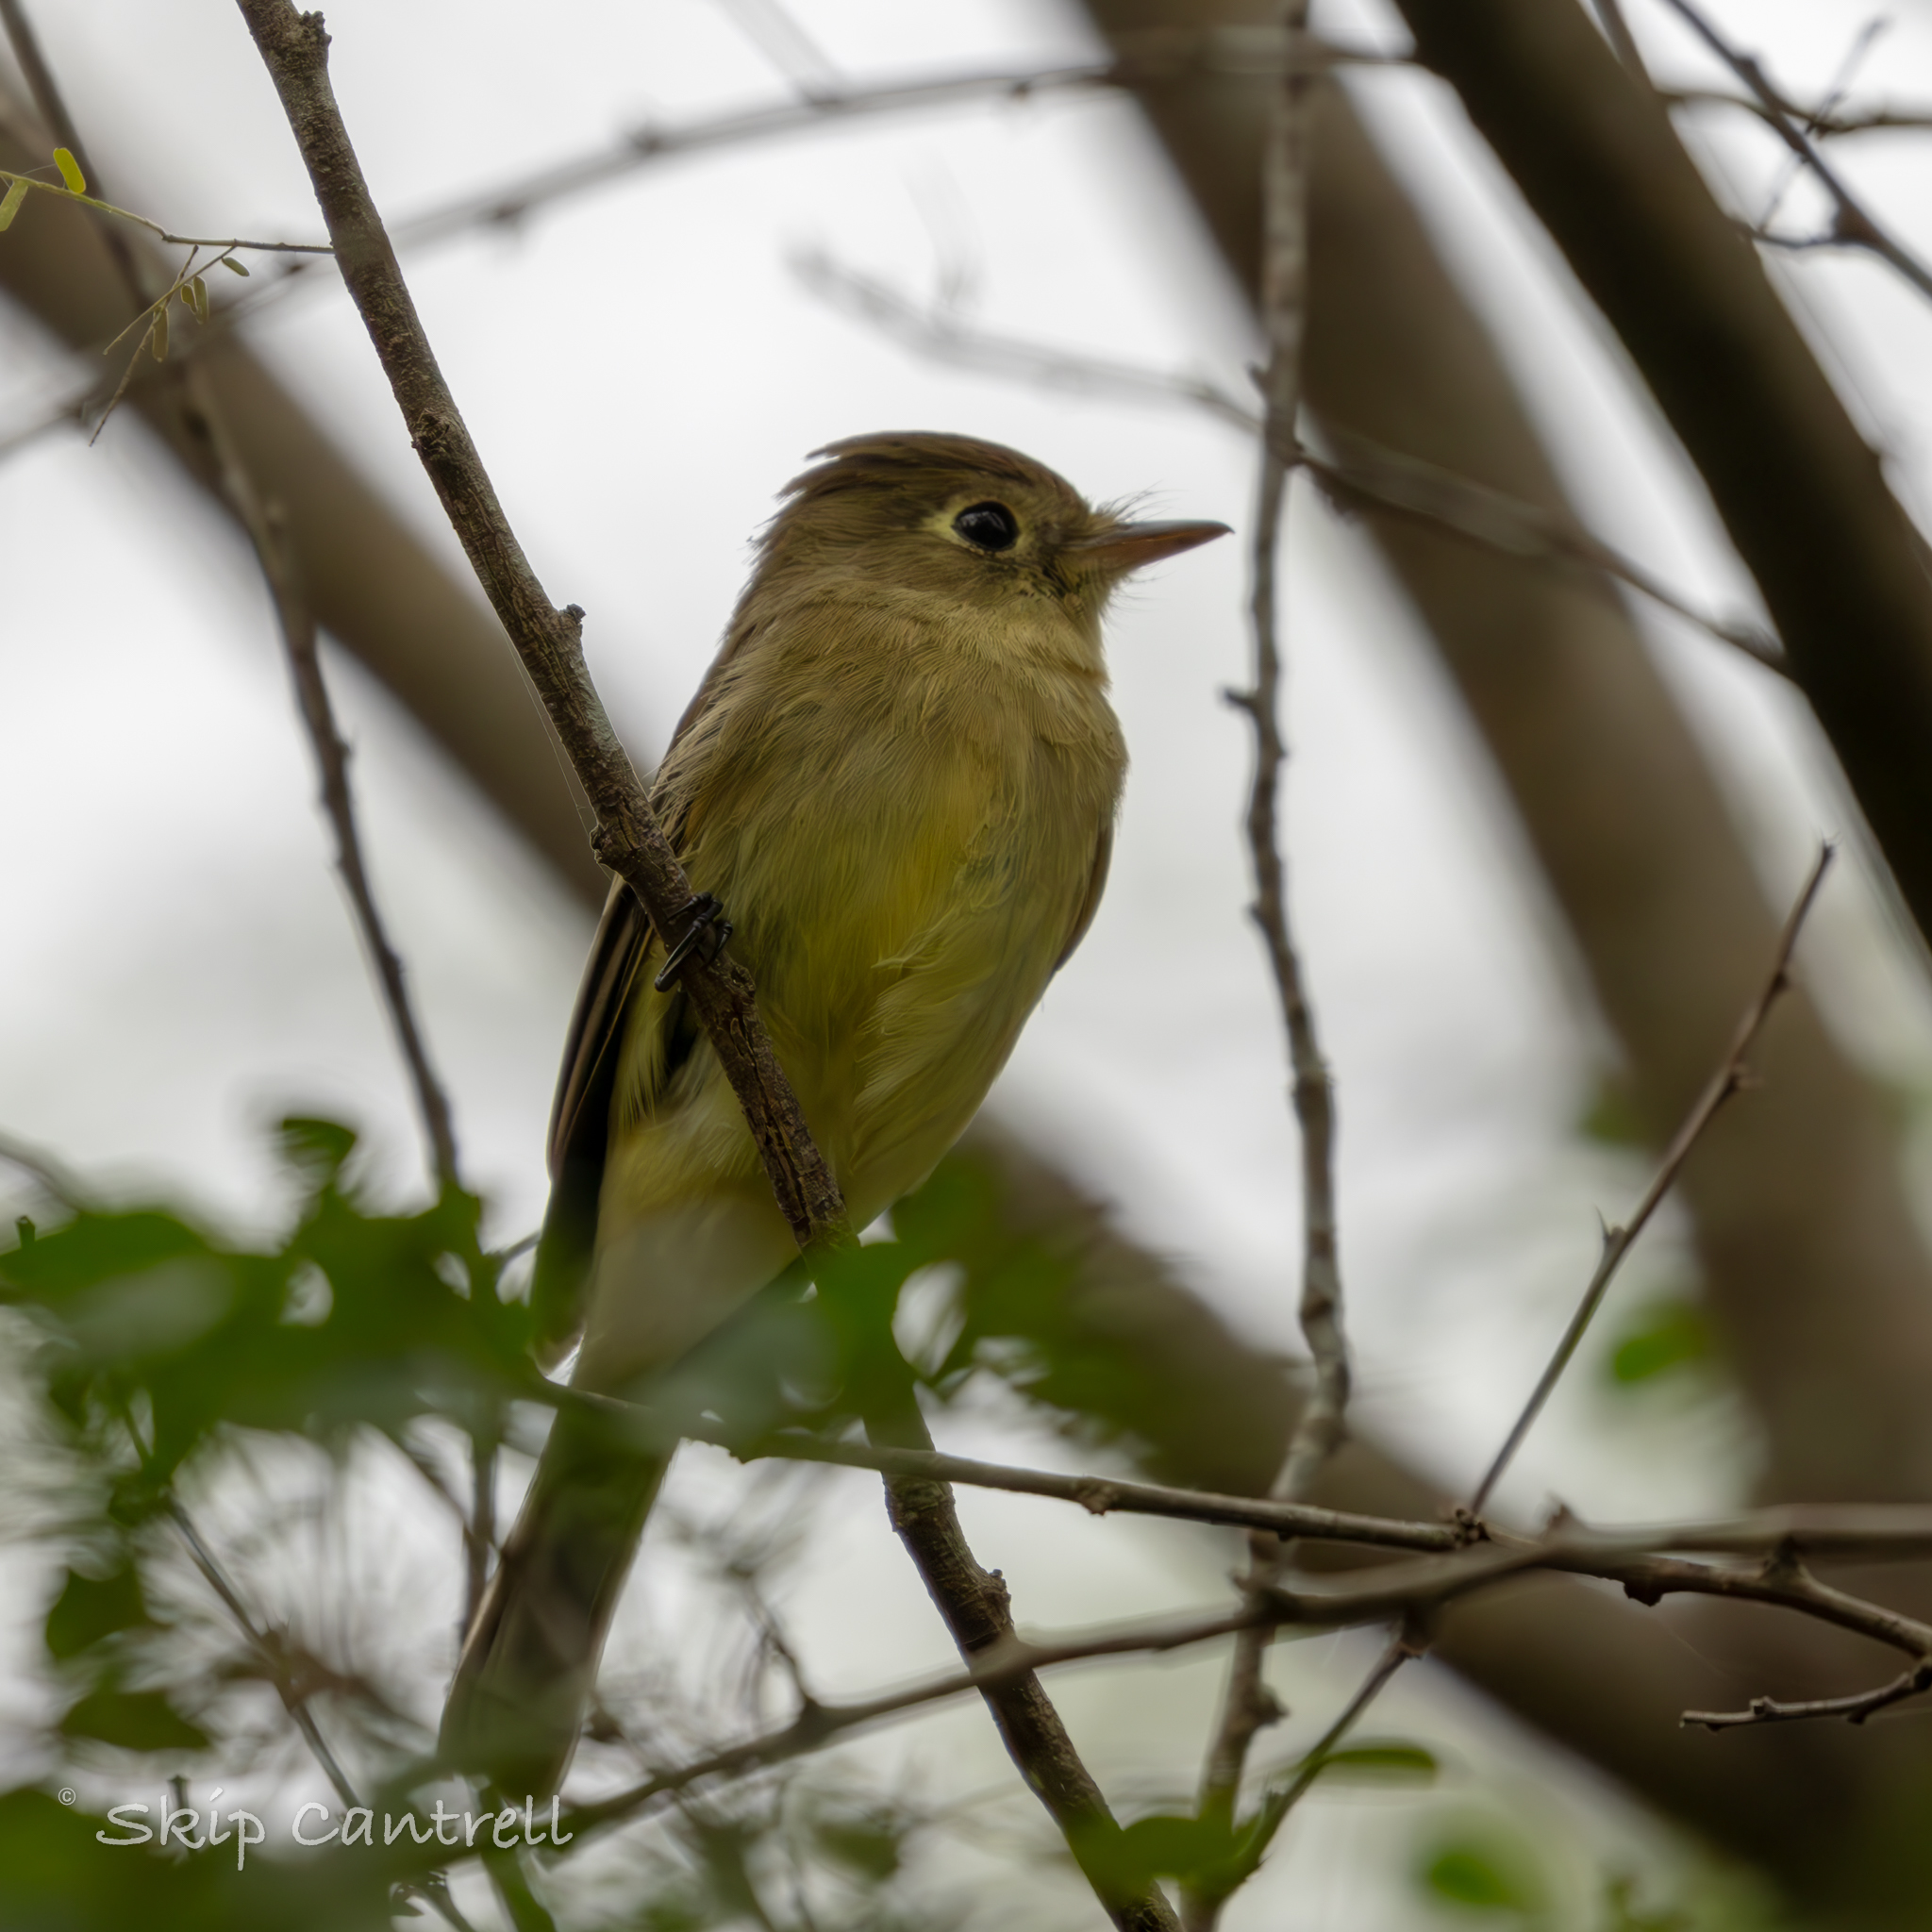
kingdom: Animalia
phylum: Chordata
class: Aves
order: Passeriformes
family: Tyrannidae
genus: Empidonax
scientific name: Empidonax difficilis
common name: Pacific-slope flycatcher
